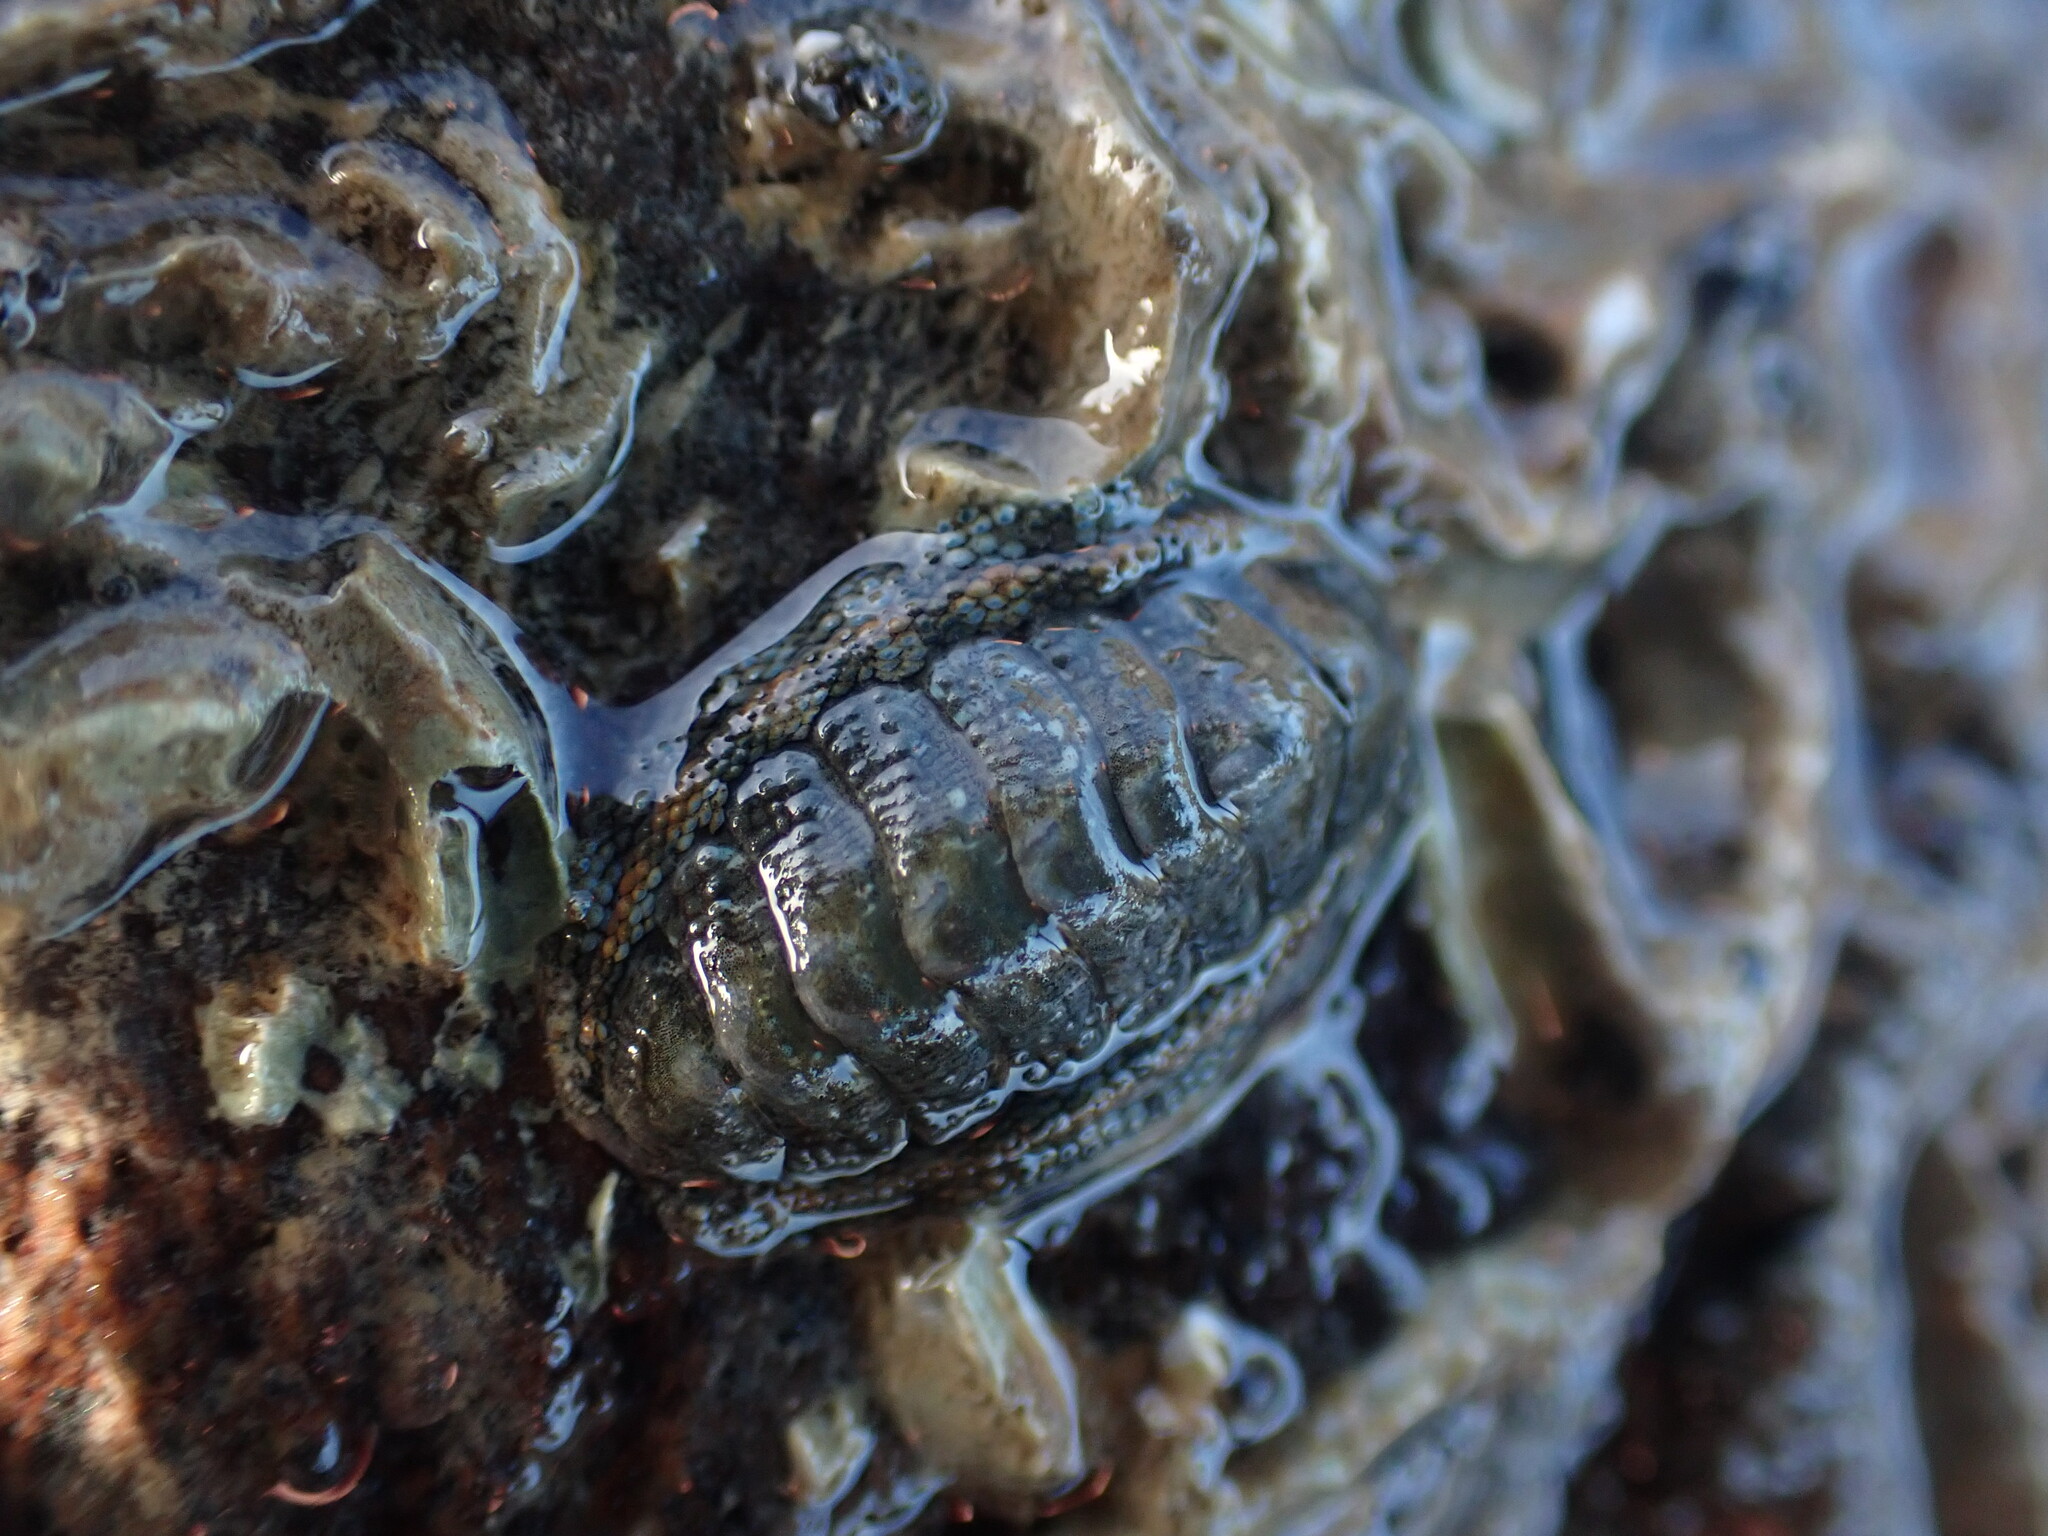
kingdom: Animalia
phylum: Mollusca
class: Polyplacophora
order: Chitonida
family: Chitonidae
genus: Sypharochiton
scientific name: Sypharochiton sinclairi
